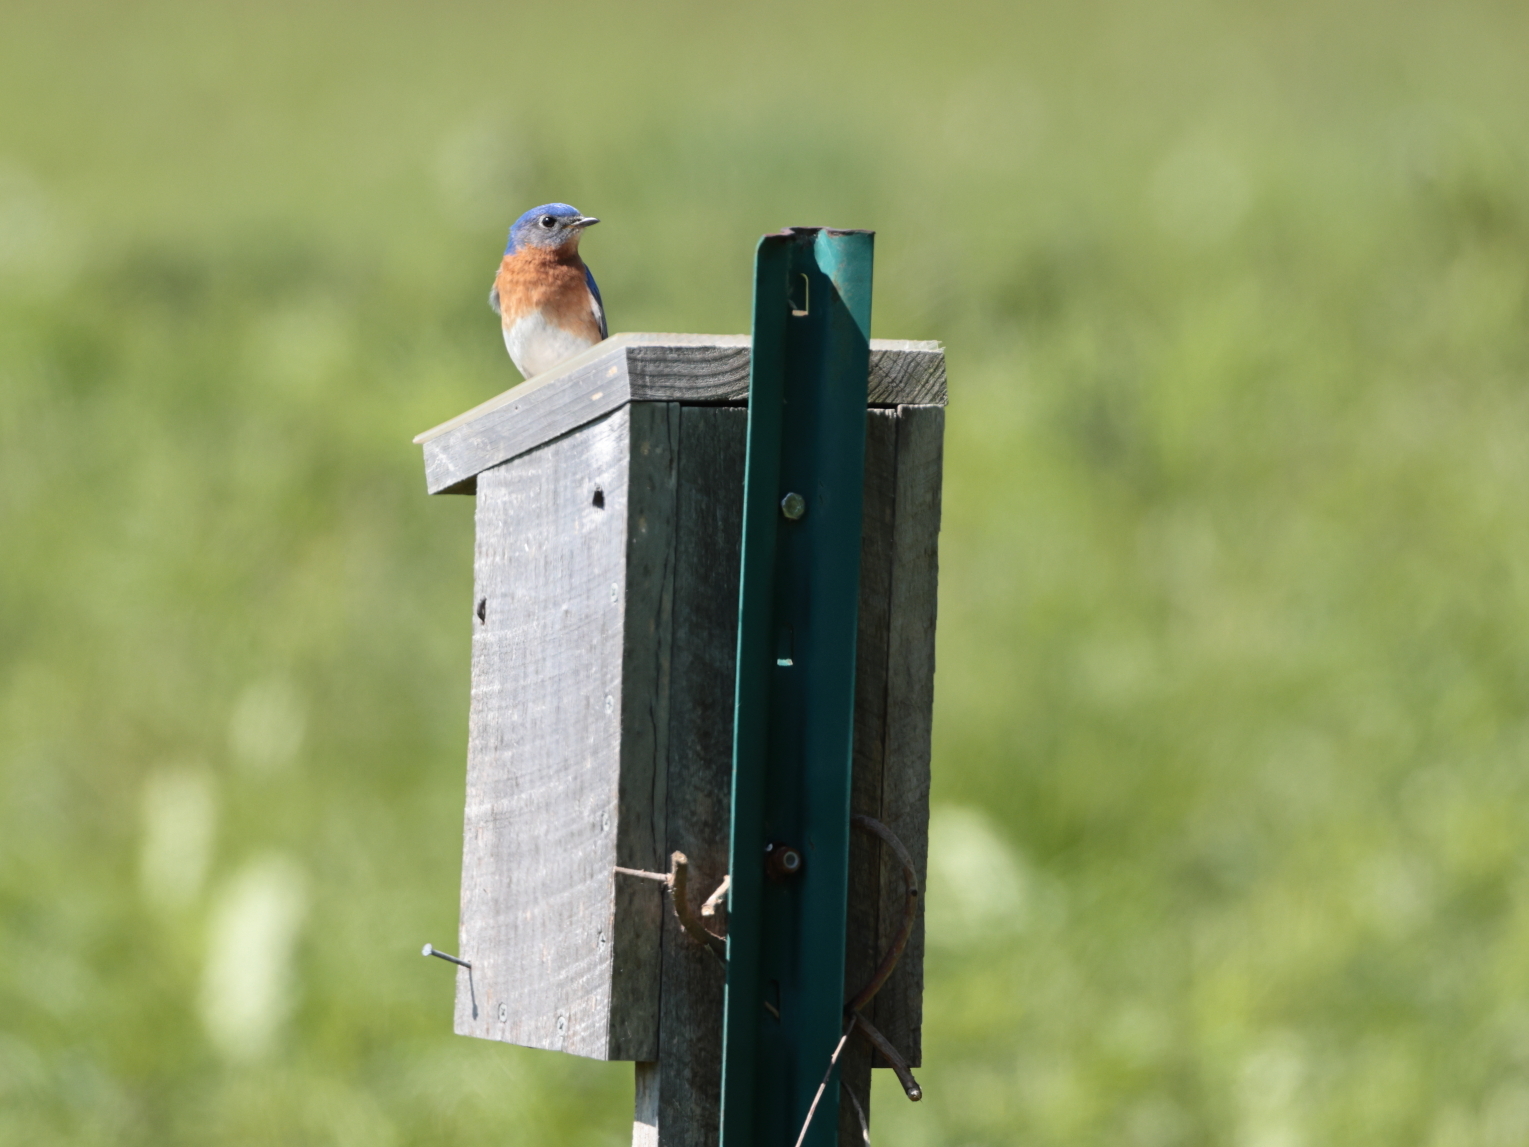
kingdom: Animalia
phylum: Chordata
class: Aves
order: Passeriformes
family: Turdidae
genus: Sialia
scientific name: Sialia sialis
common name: Eastern bluebird
